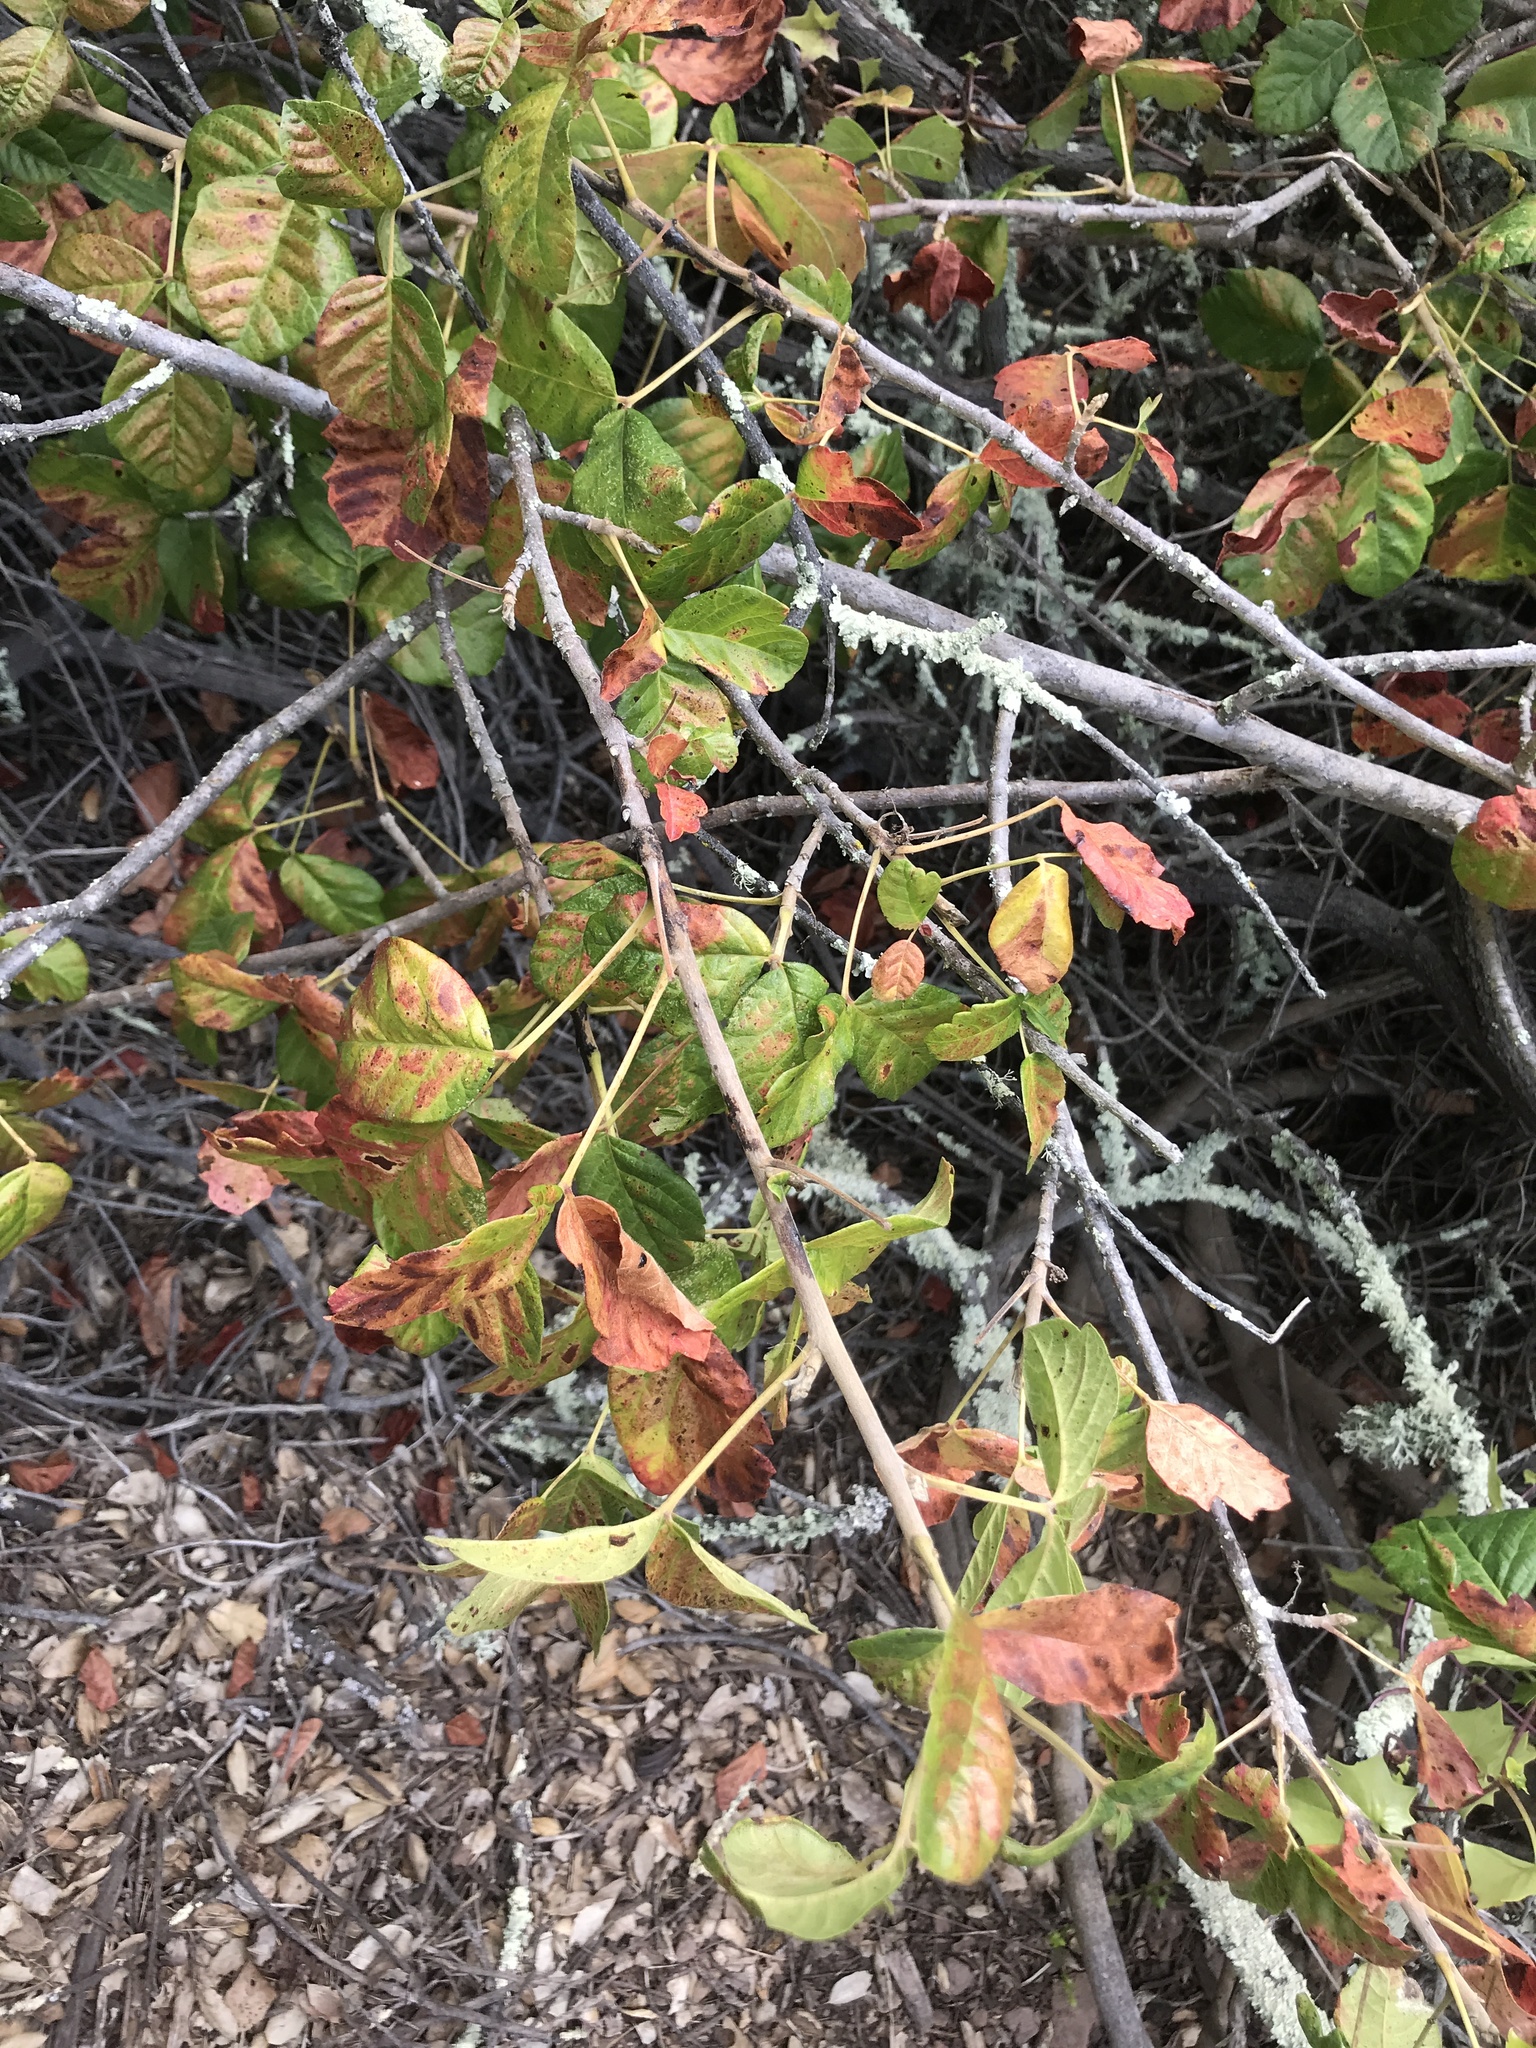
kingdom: Plantae
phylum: Tracheophyta
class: Magnoliopsida
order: Sapindales
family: Anacardiaceae
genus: Toxicodendron
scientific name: Toxicodendron diversilobum
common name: Pacific poison-oak
